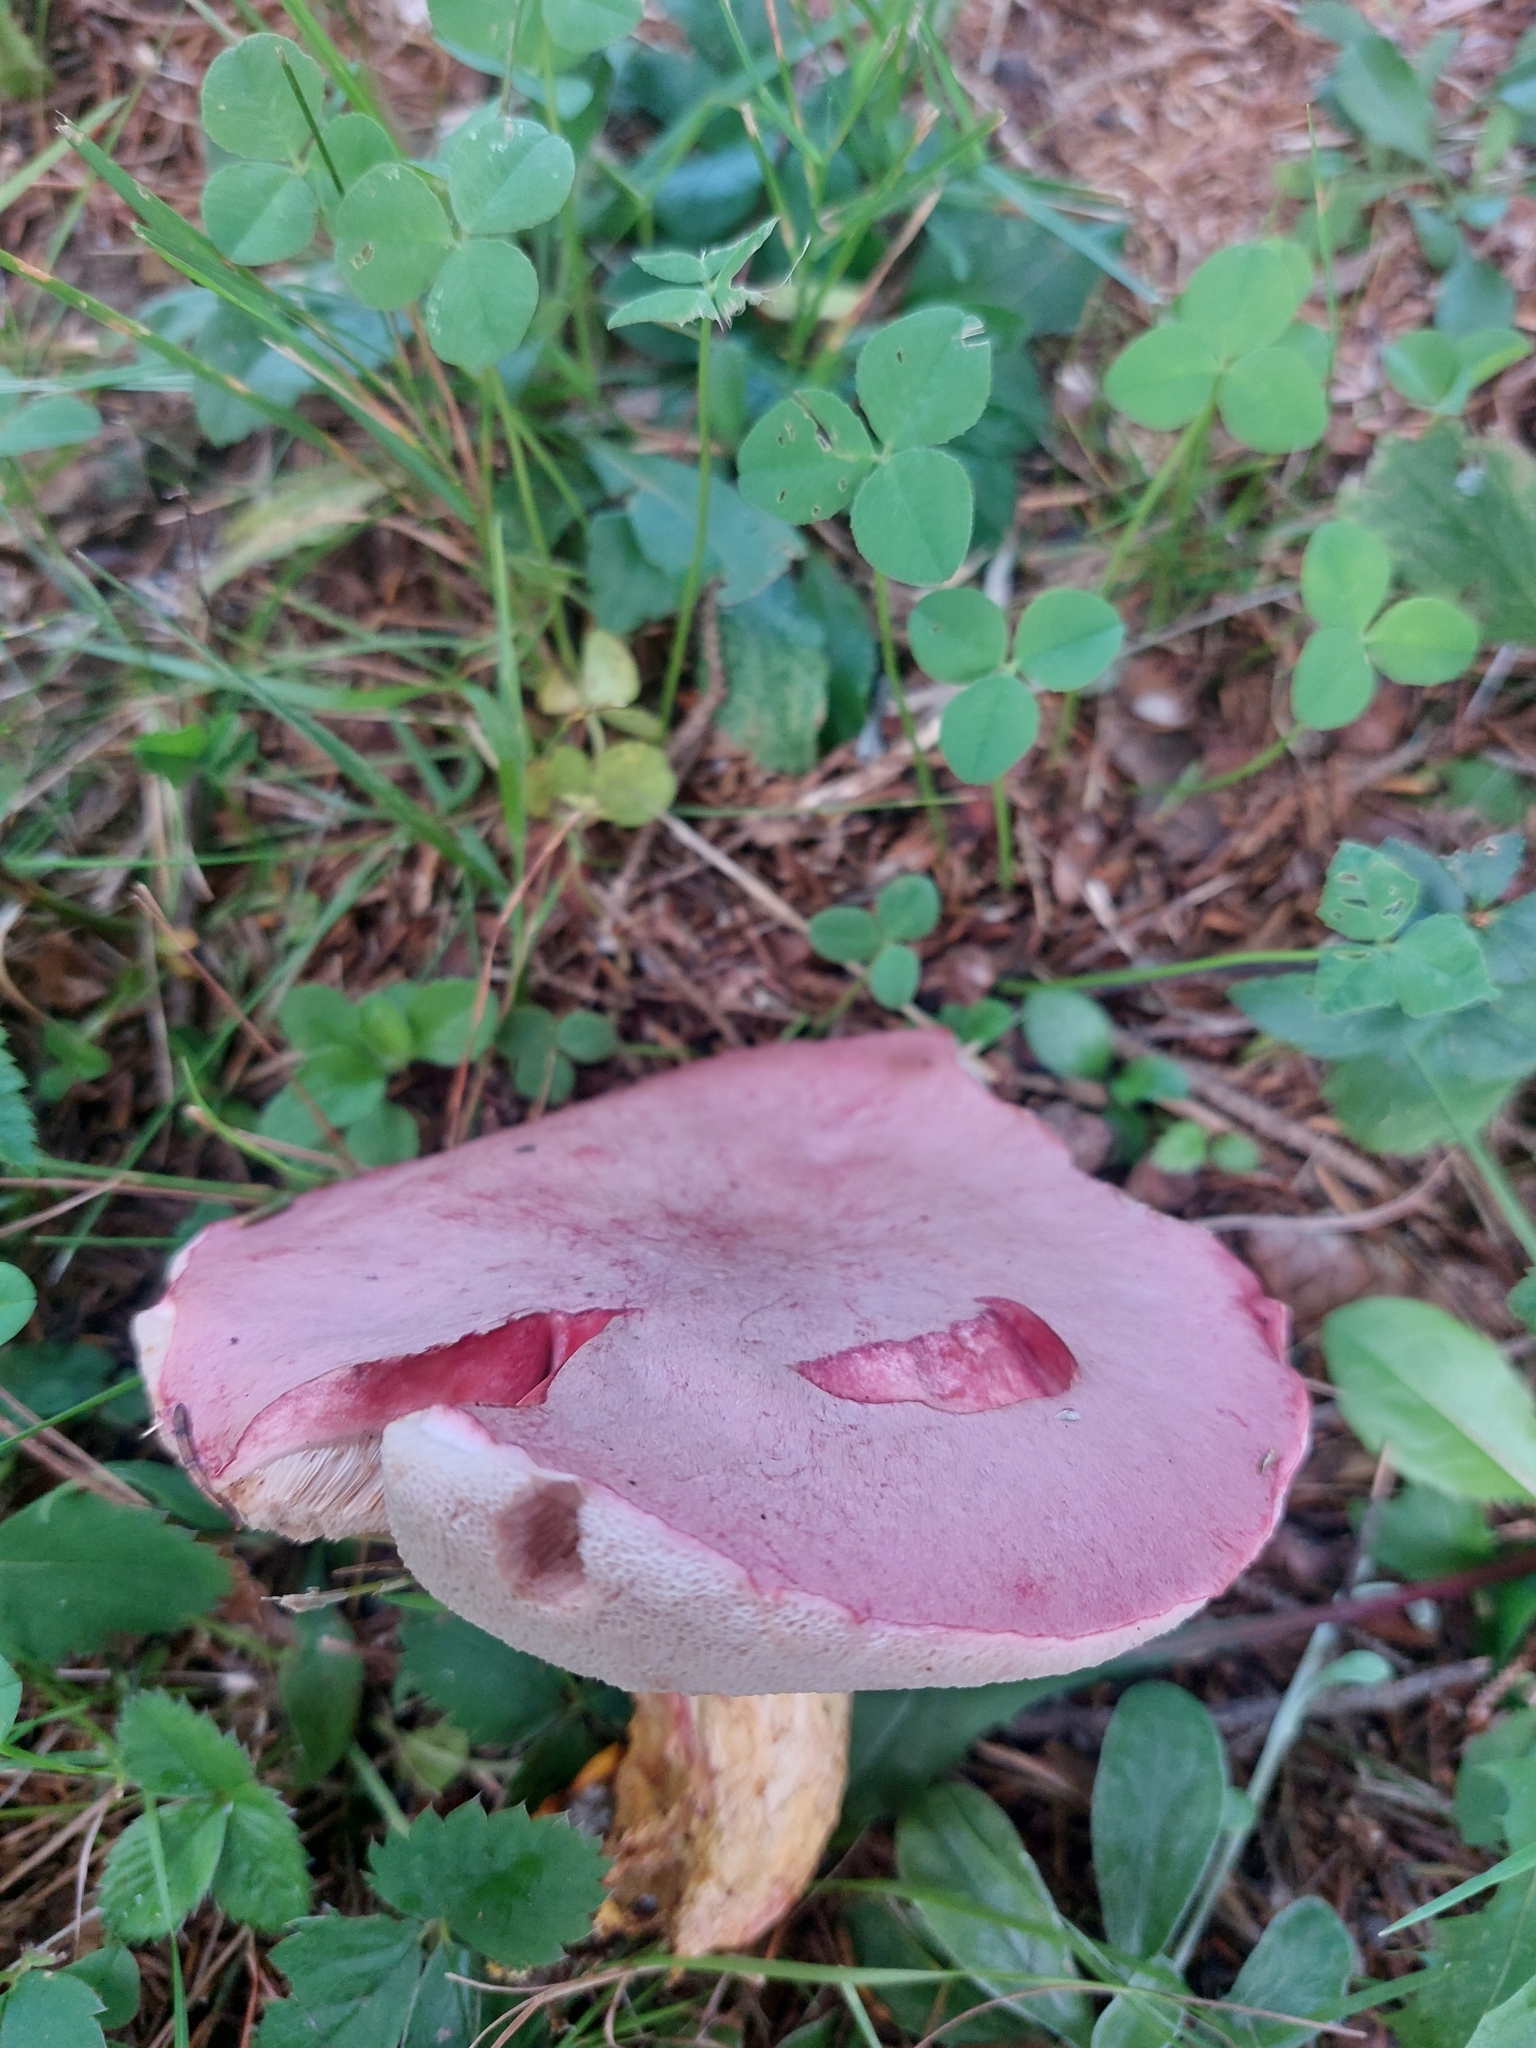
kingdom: Fungi
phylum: Basidiomycota
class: Agaricomycetes
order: Boletales
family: Boletaceae
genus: Harrya
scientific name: Harrya chromipes
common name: Chrome-footed bolete
